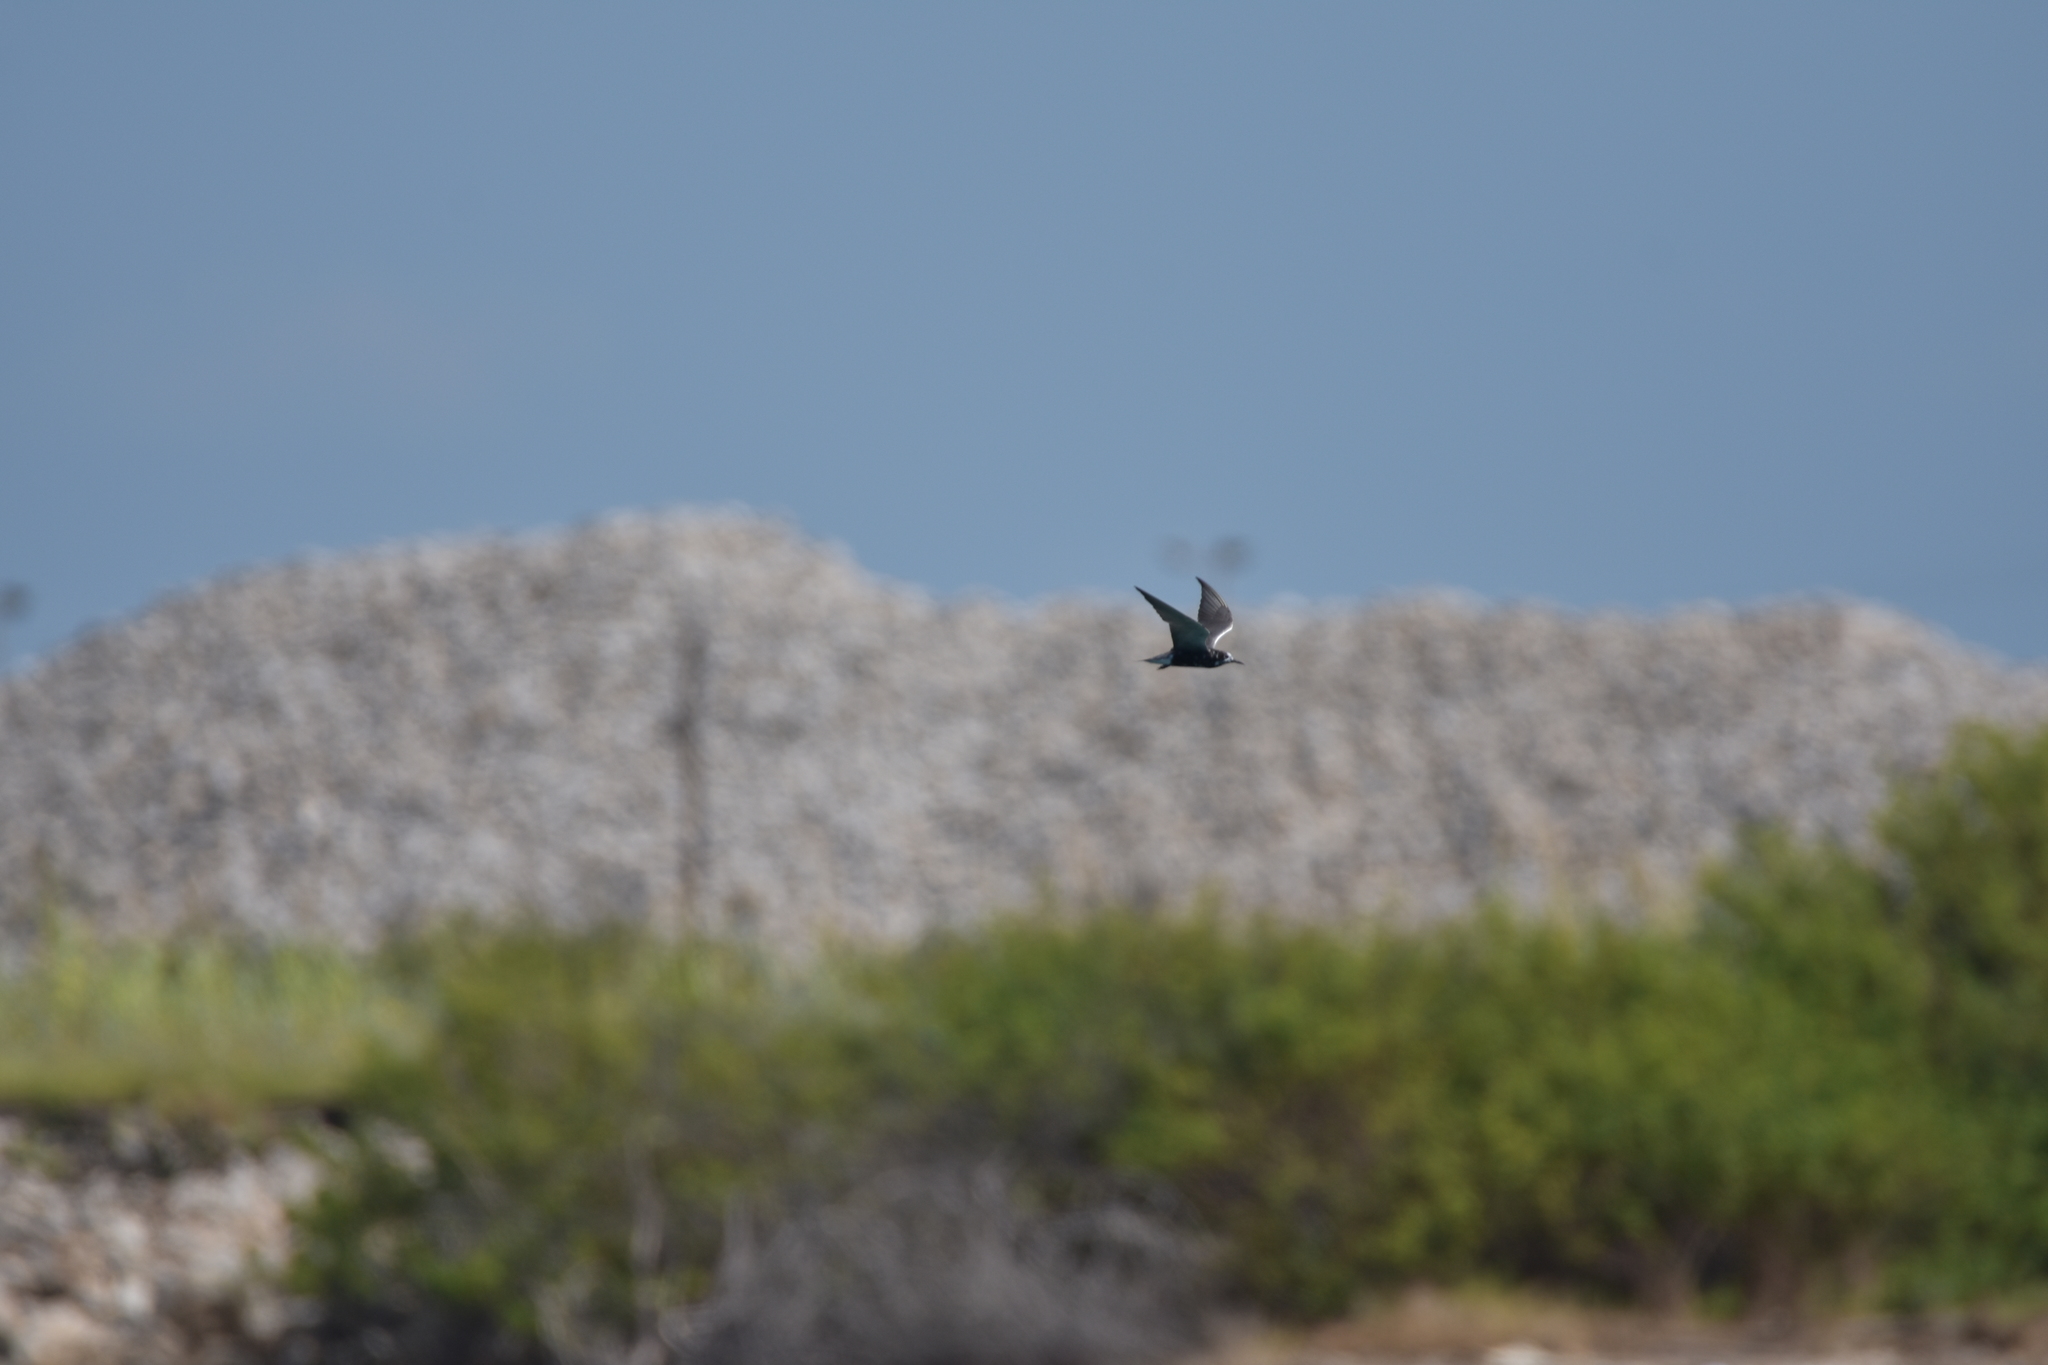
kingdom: Animalia
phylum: Chordata
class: Aves
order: Charadriiformes
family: Laridae
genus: Chlidonias
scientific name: Chlidonias niger
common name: Black tern
